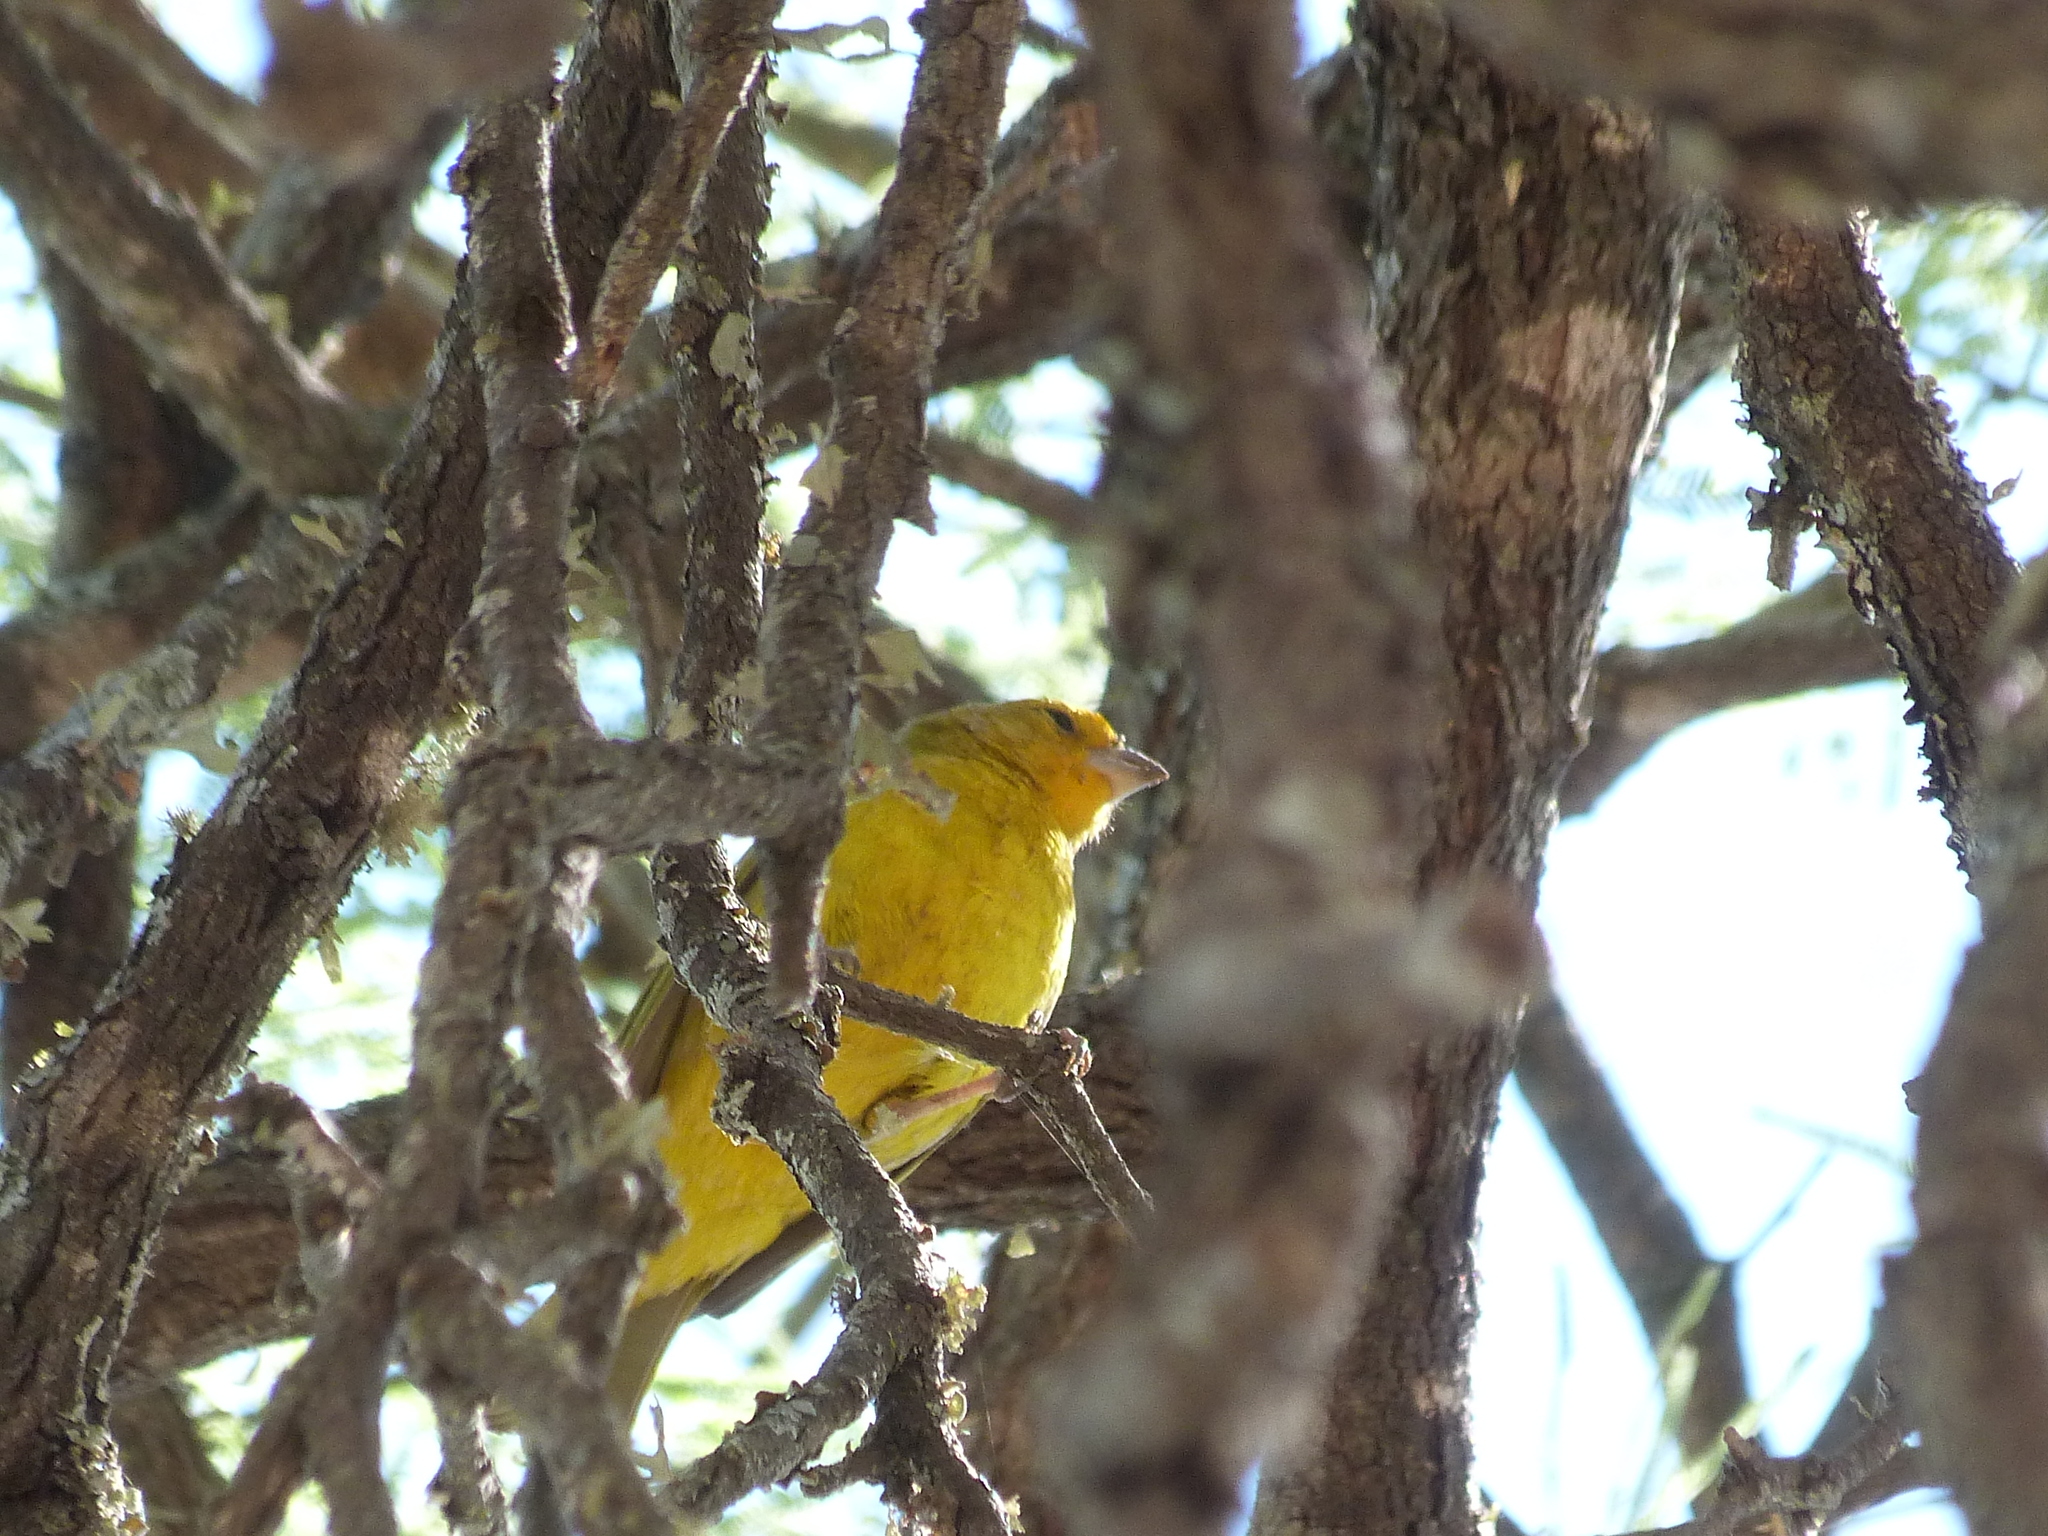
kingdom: Animalia
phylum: Chordata
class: Aves
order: Passeriformes
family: Thraupidae
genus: Sicalis
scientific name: Sicalis flaveola
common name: Saffron finch
